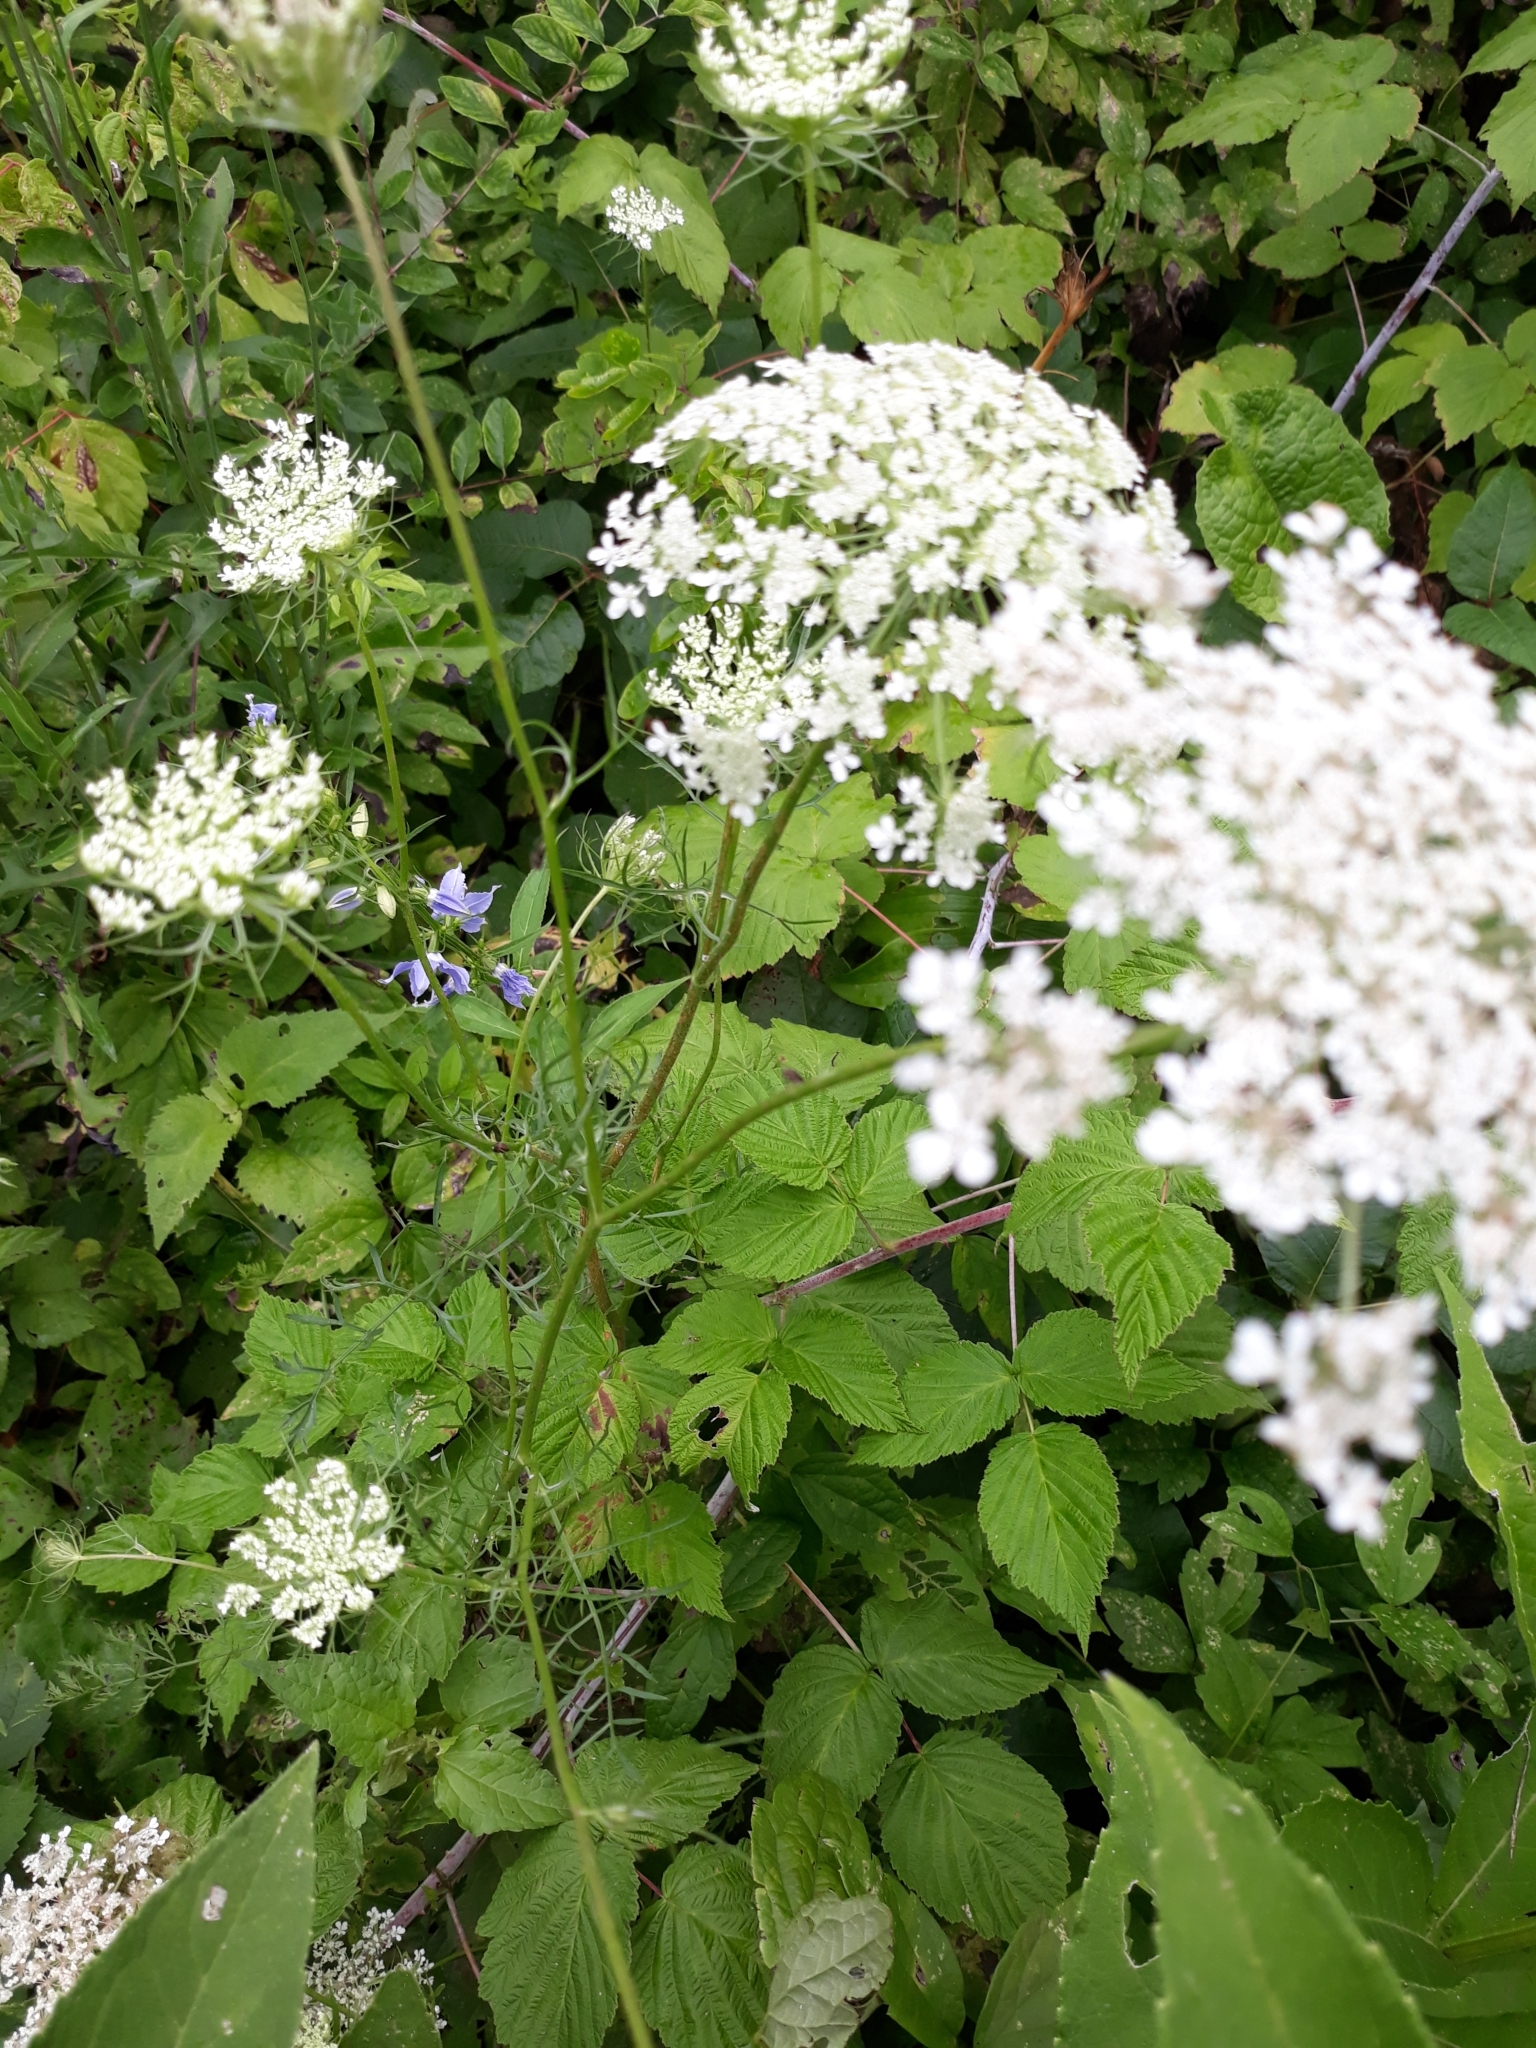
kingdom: Plantae
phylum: Tracheophyta
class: Magnoliopsida
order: Apiales
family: Apiaceae
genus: Daucus
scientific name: Daucus carota
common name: Wild carrot
